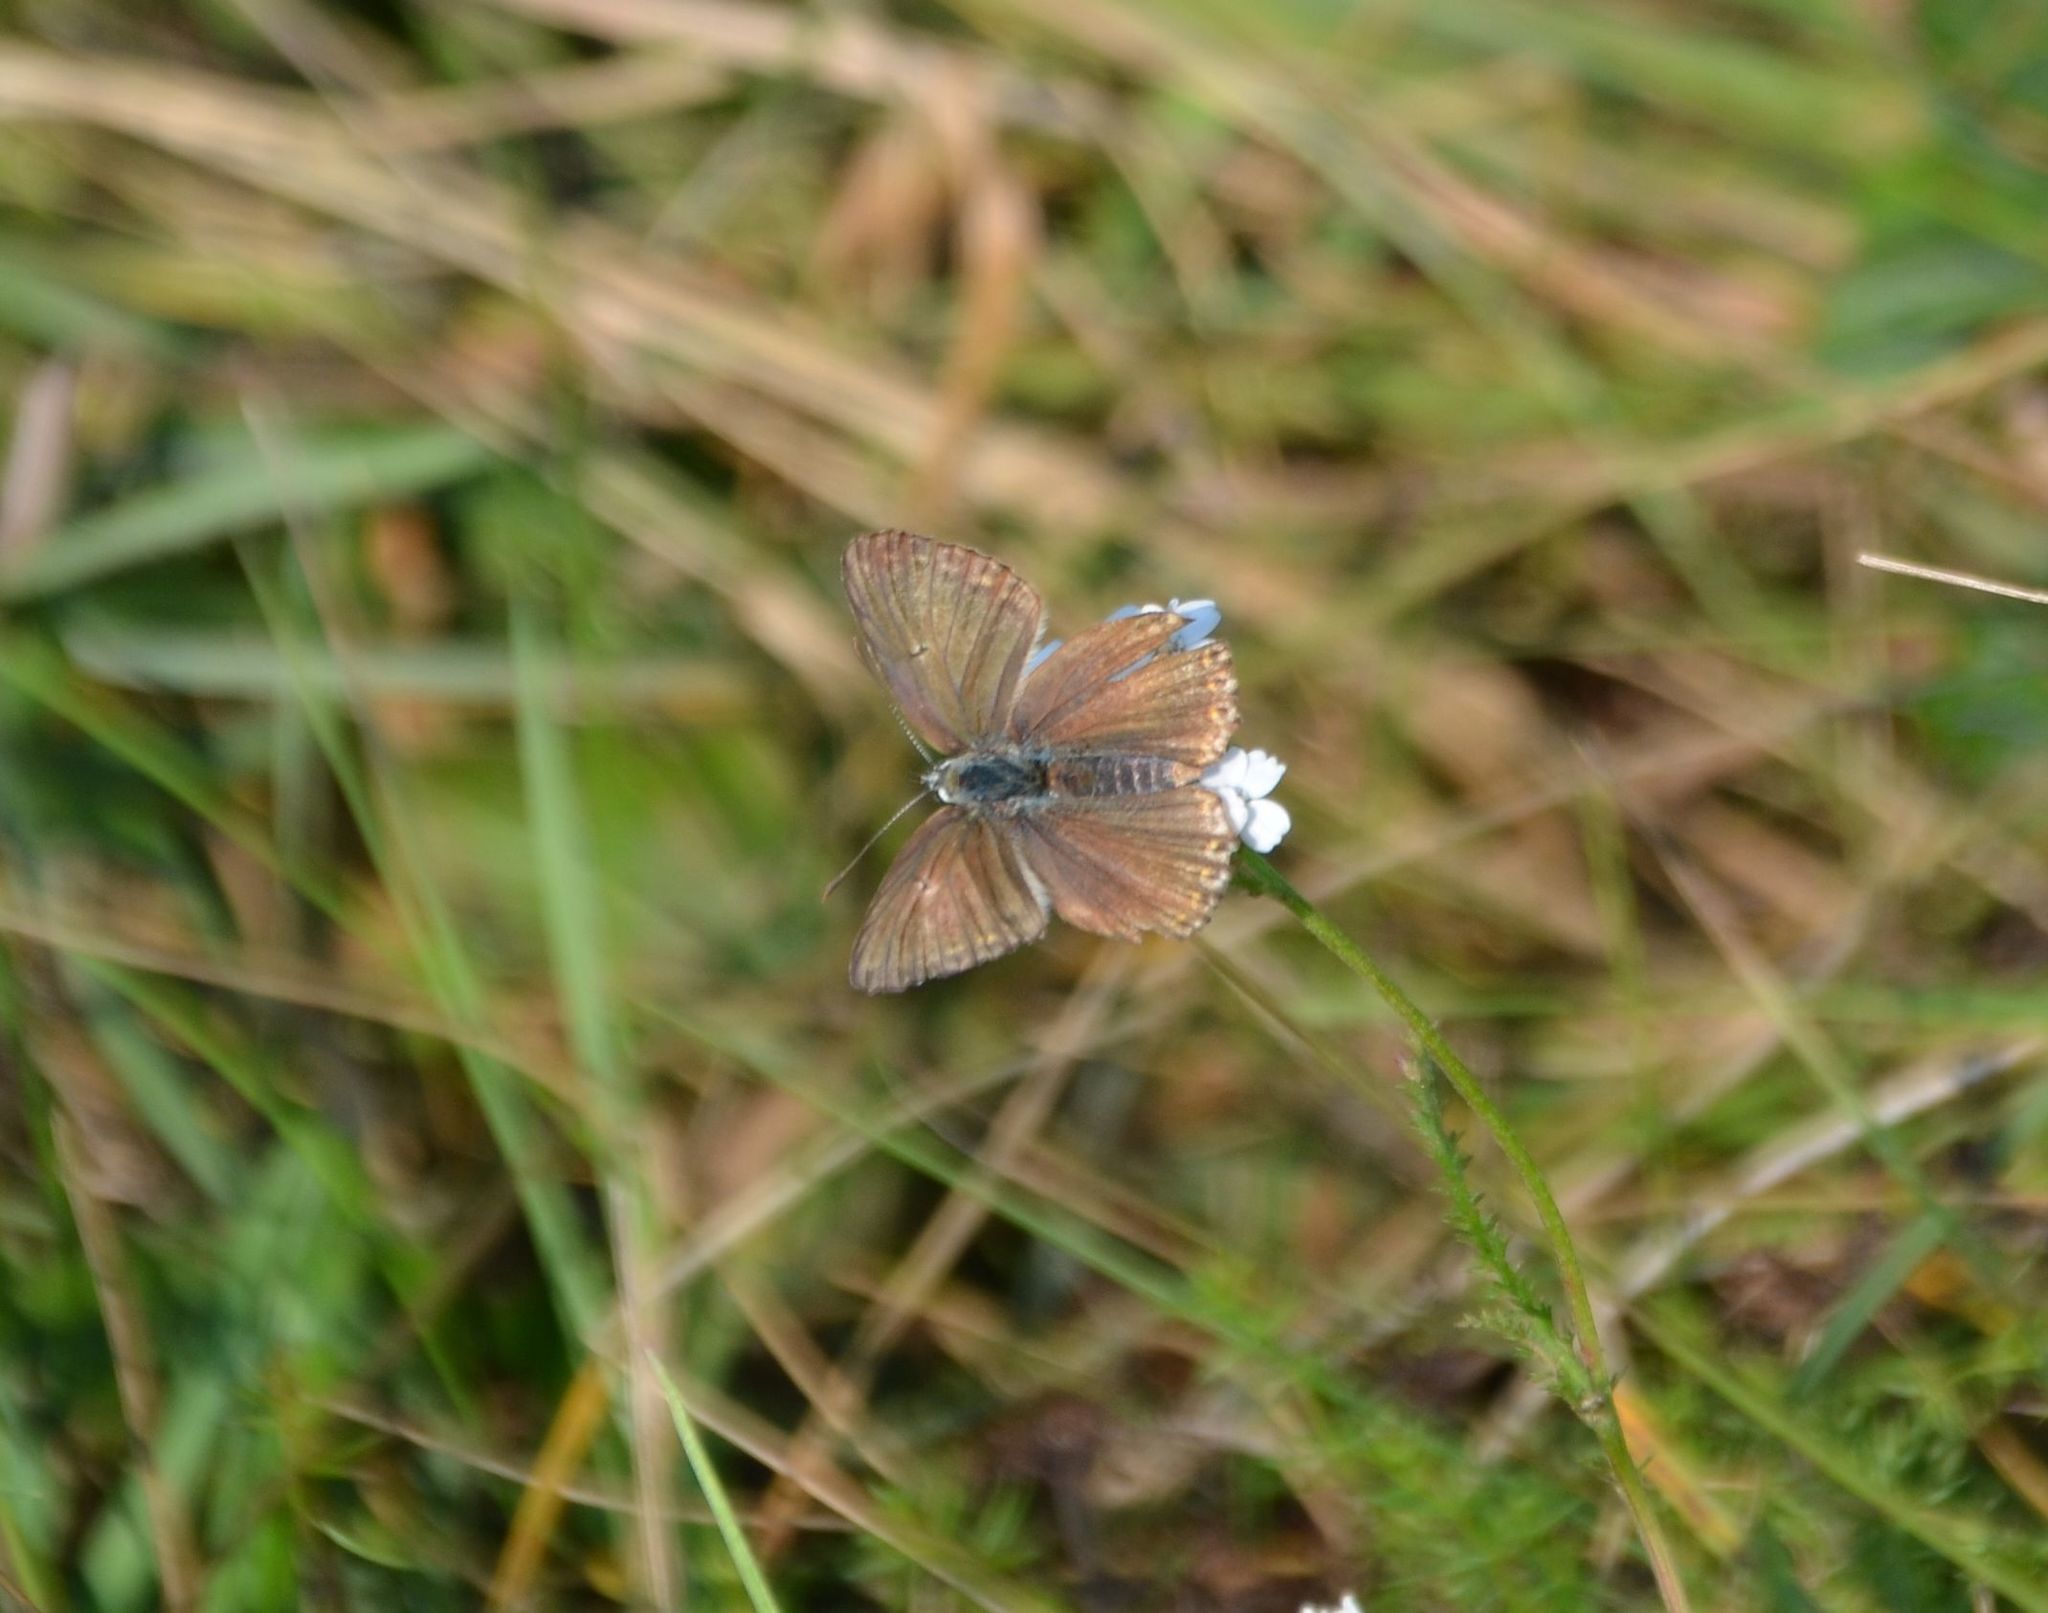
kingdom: Animalia
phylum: Arthropoda
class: Insecta
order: Lepidoptera
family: Lycaenidae
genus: Lysandra
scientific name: Lysandra coridon
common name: Chalkhill blue
